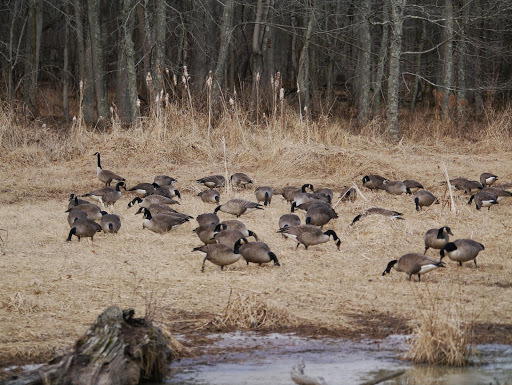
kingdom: Animalia
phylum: Chordata
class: Aves
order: Anseriformes
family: Anatidae
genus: Branta
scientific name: Branta canadensis
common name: Canada goose
